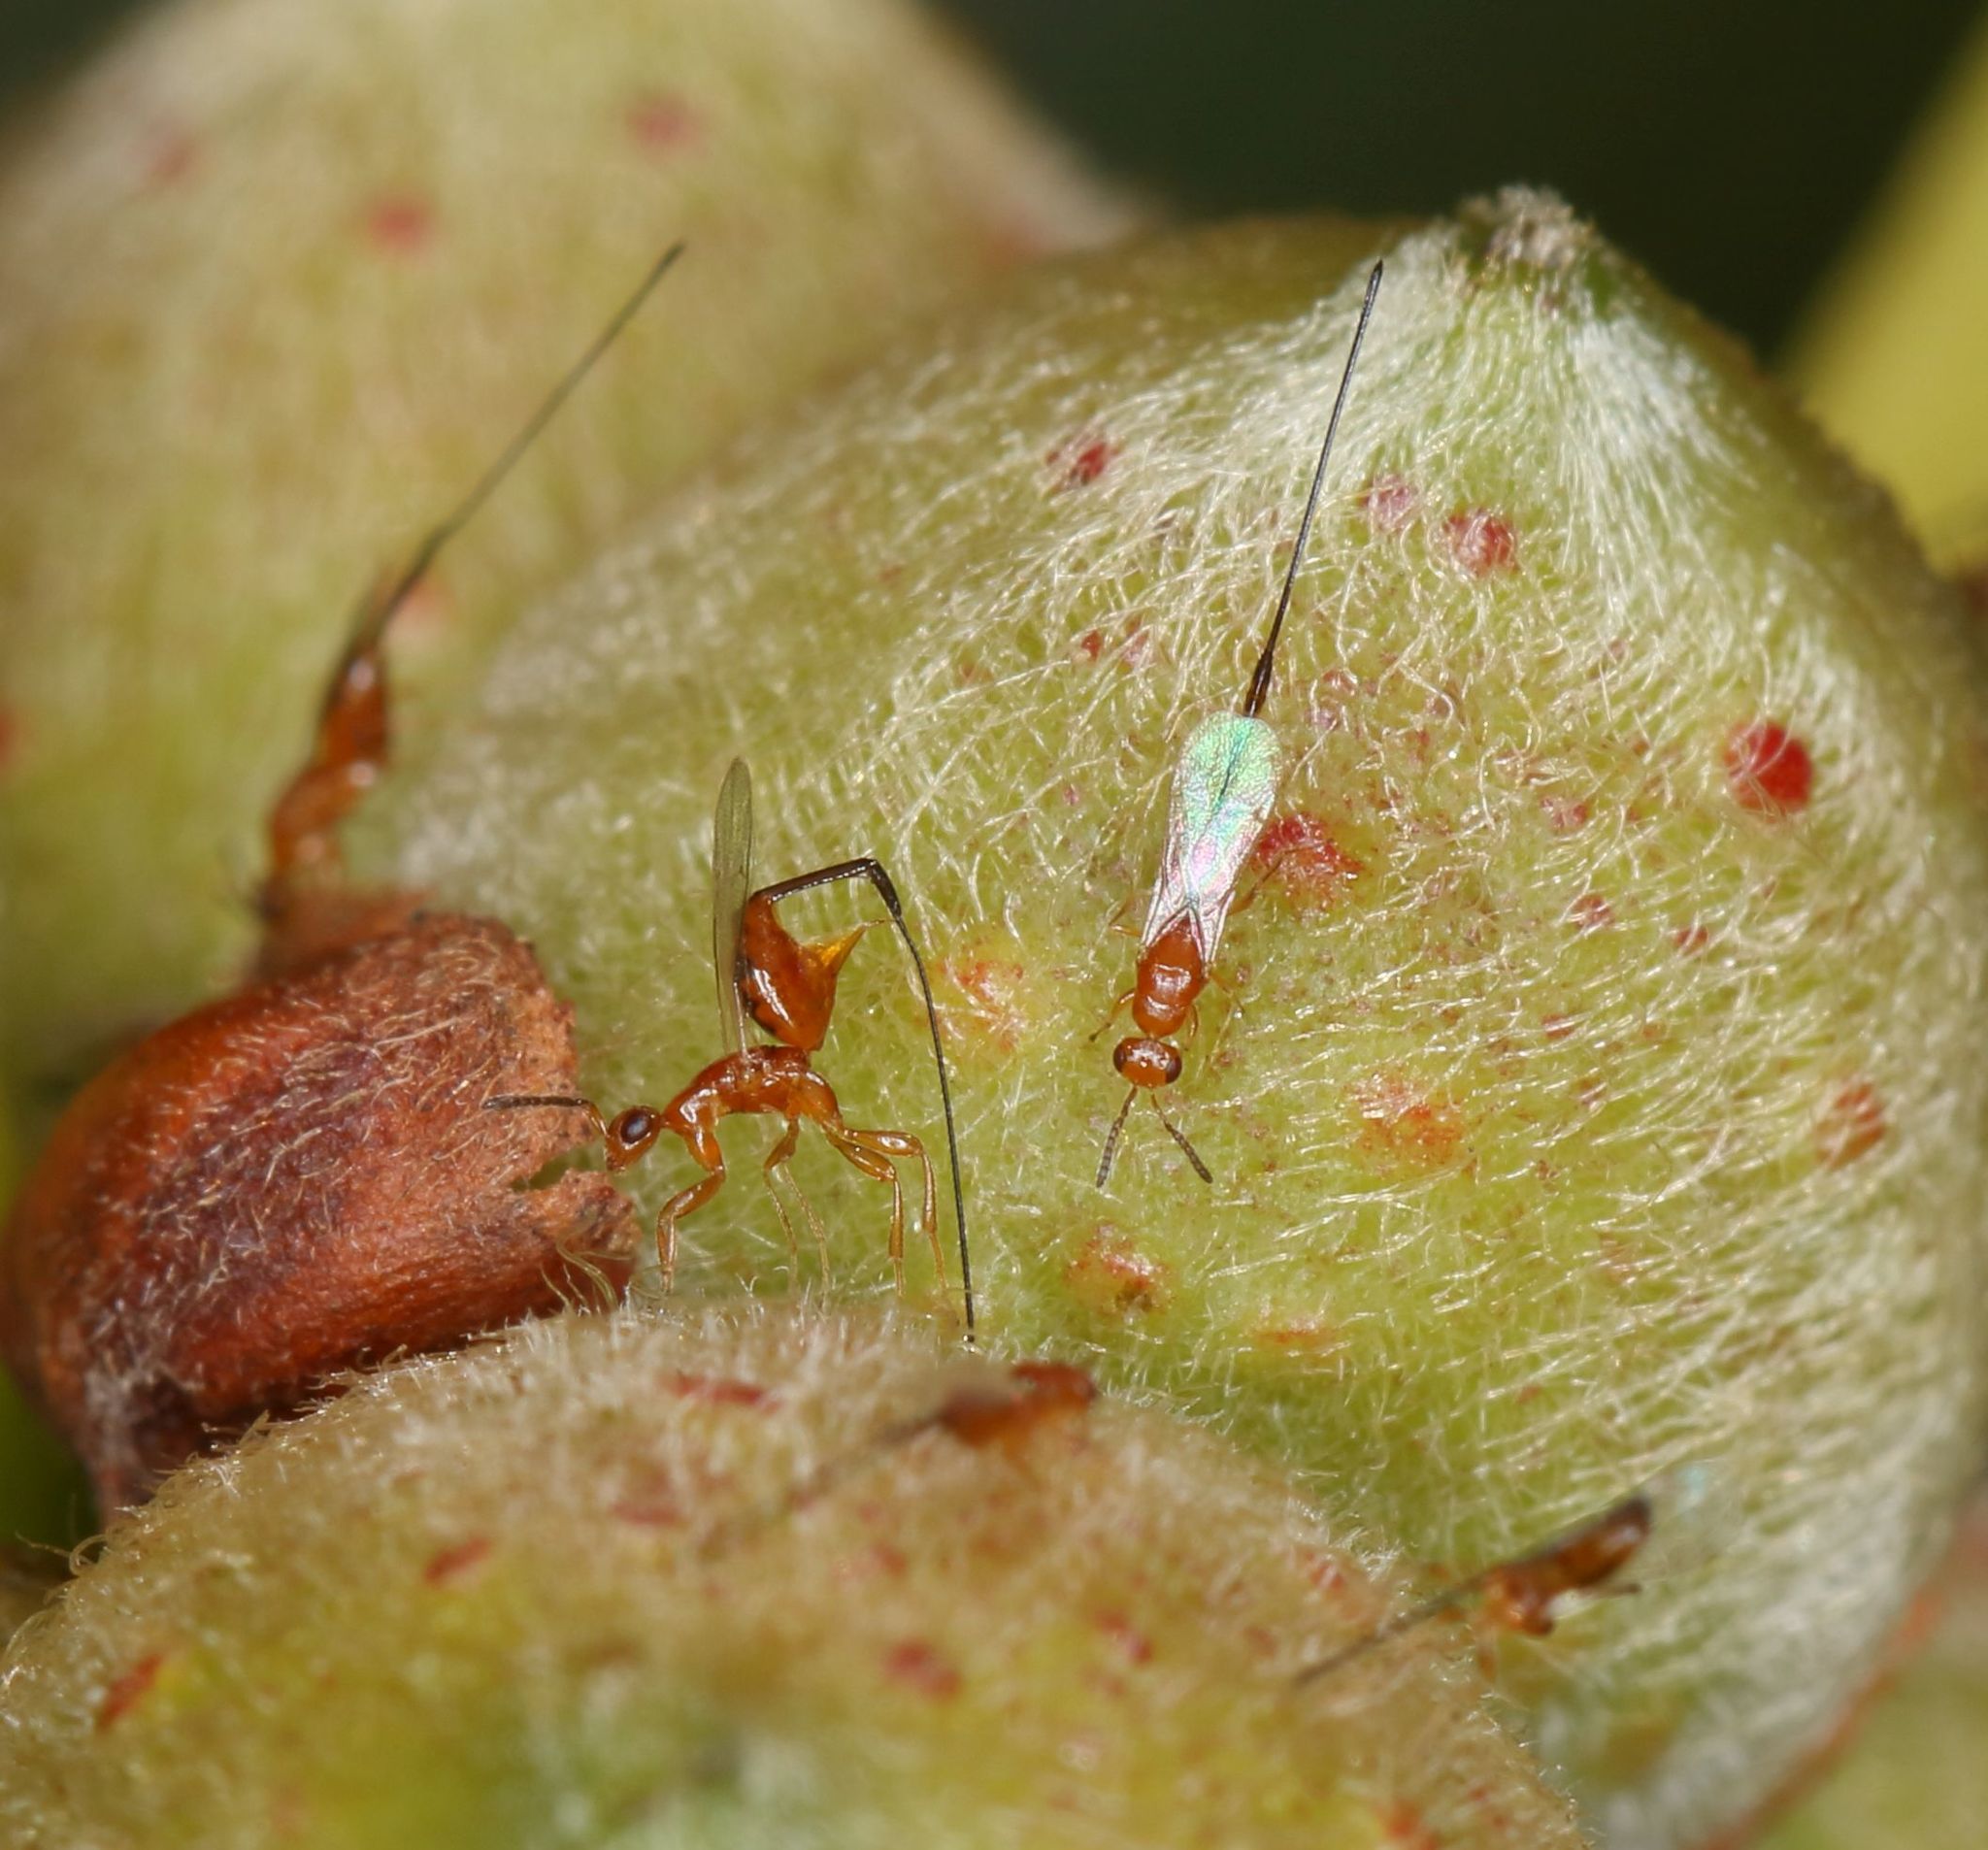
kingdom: Animalia
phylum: Arthropoda
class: Insecta
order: Hymenoptera
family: Agaonidae
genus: Philotrypesis
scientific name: Philotrypesis parca
